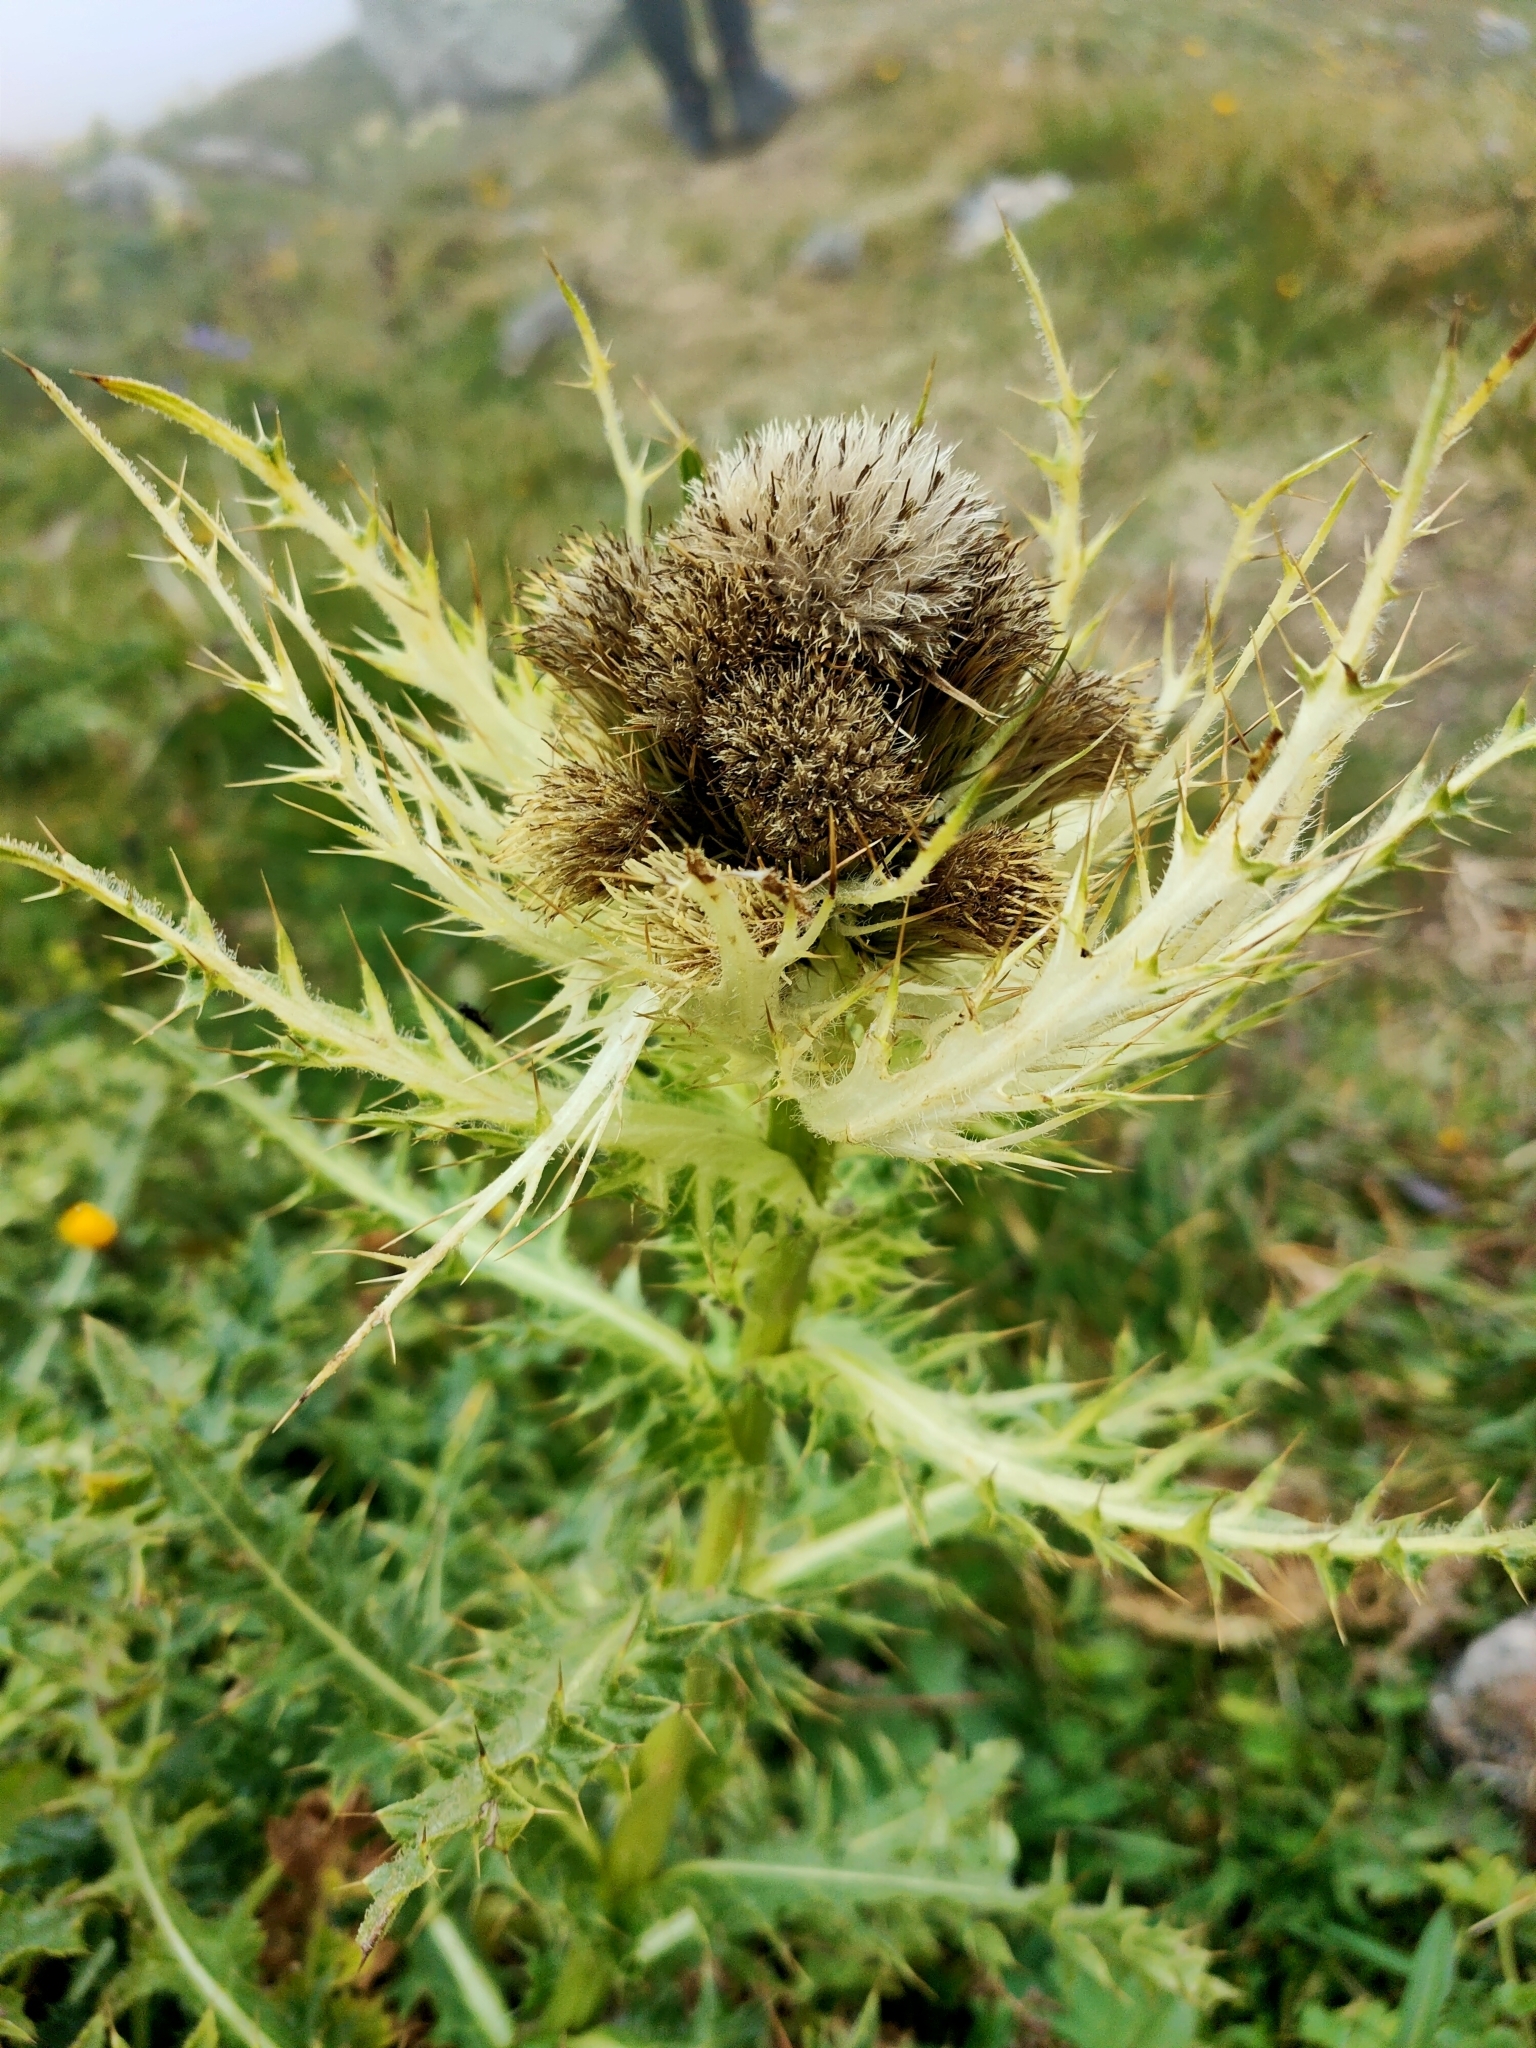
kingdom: Plantae
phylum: Tracheophyta
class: Magnoliopsida
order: Asterales
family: Asteraceae
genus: Cirsium
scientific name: Cirsium spinosissimum
